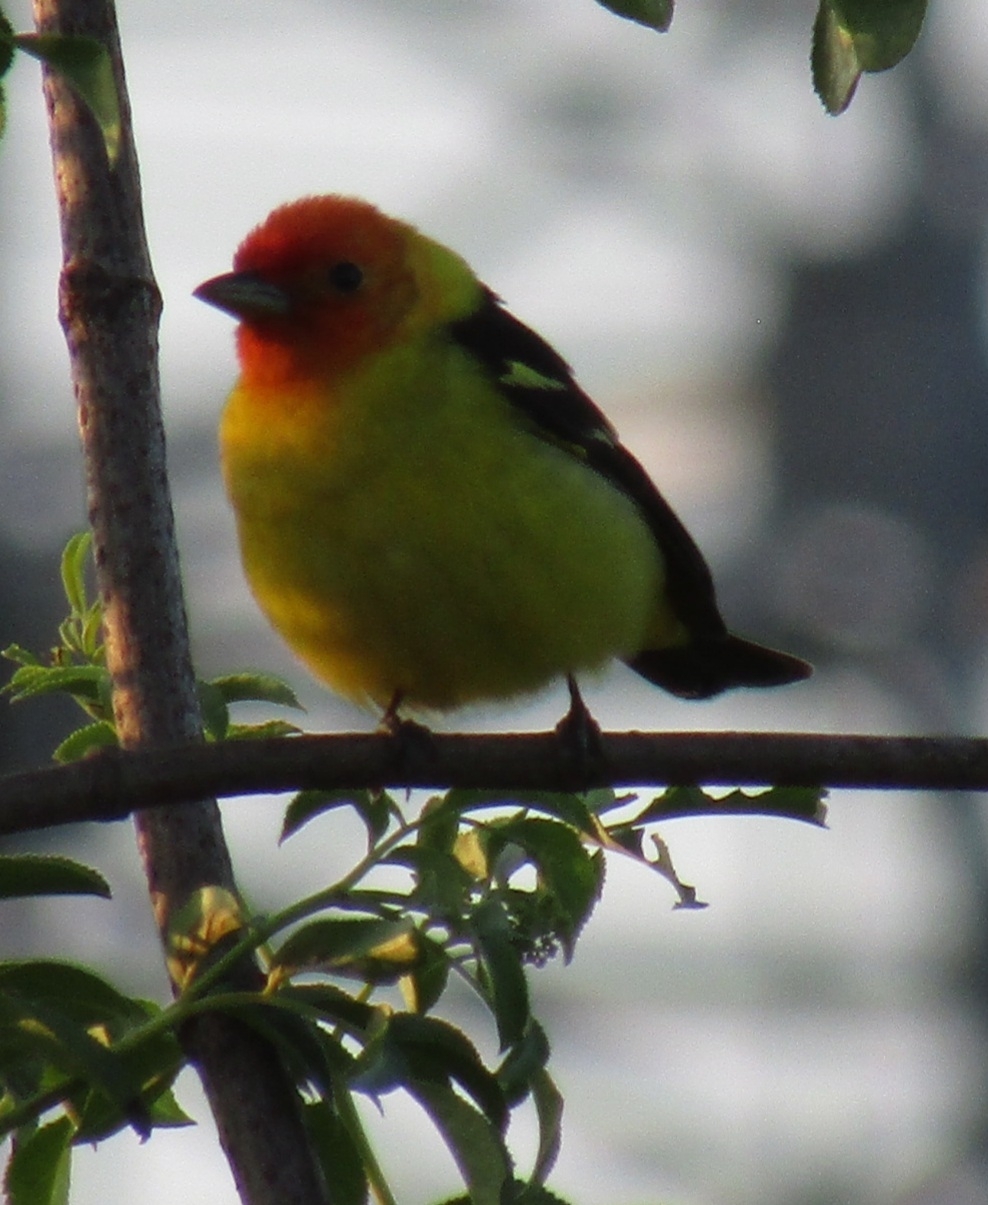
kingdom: Animalia
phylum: Chordata
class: Aves
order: Passeriformes
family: Cardinalidae
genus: Piranga
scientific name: Piranga ludoviciana
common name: Western tanager
